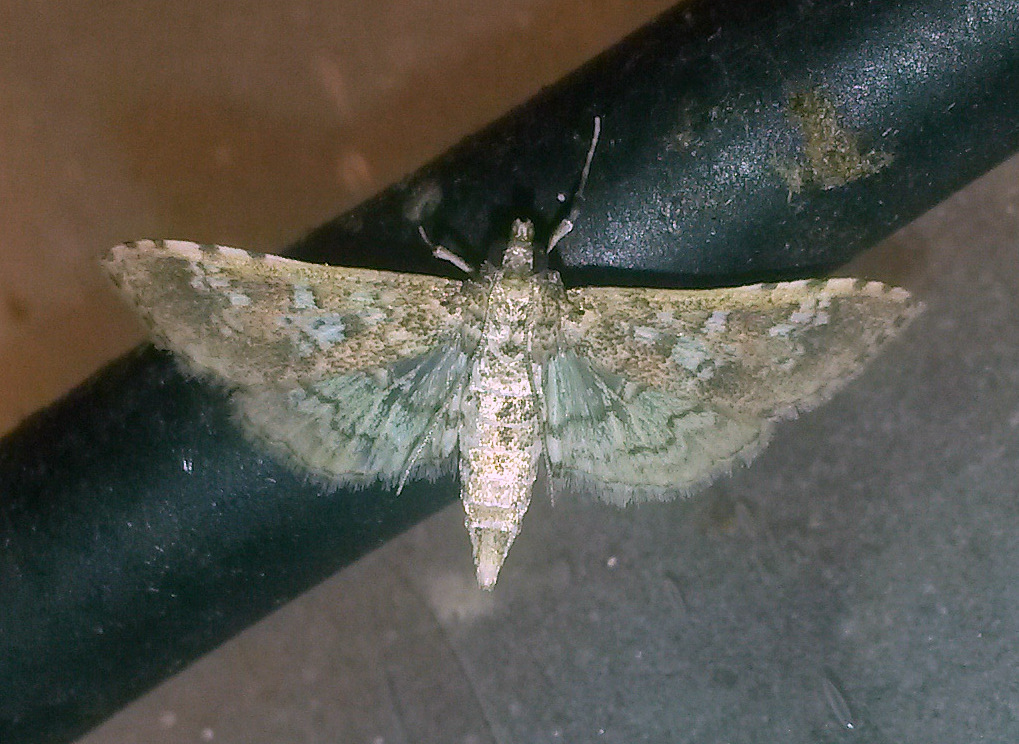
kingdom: Animalia
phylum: Arthropoda
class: Insecta
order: Lepidoptera
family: Crambidae
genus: Samea
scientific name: Samea multiplicalis
